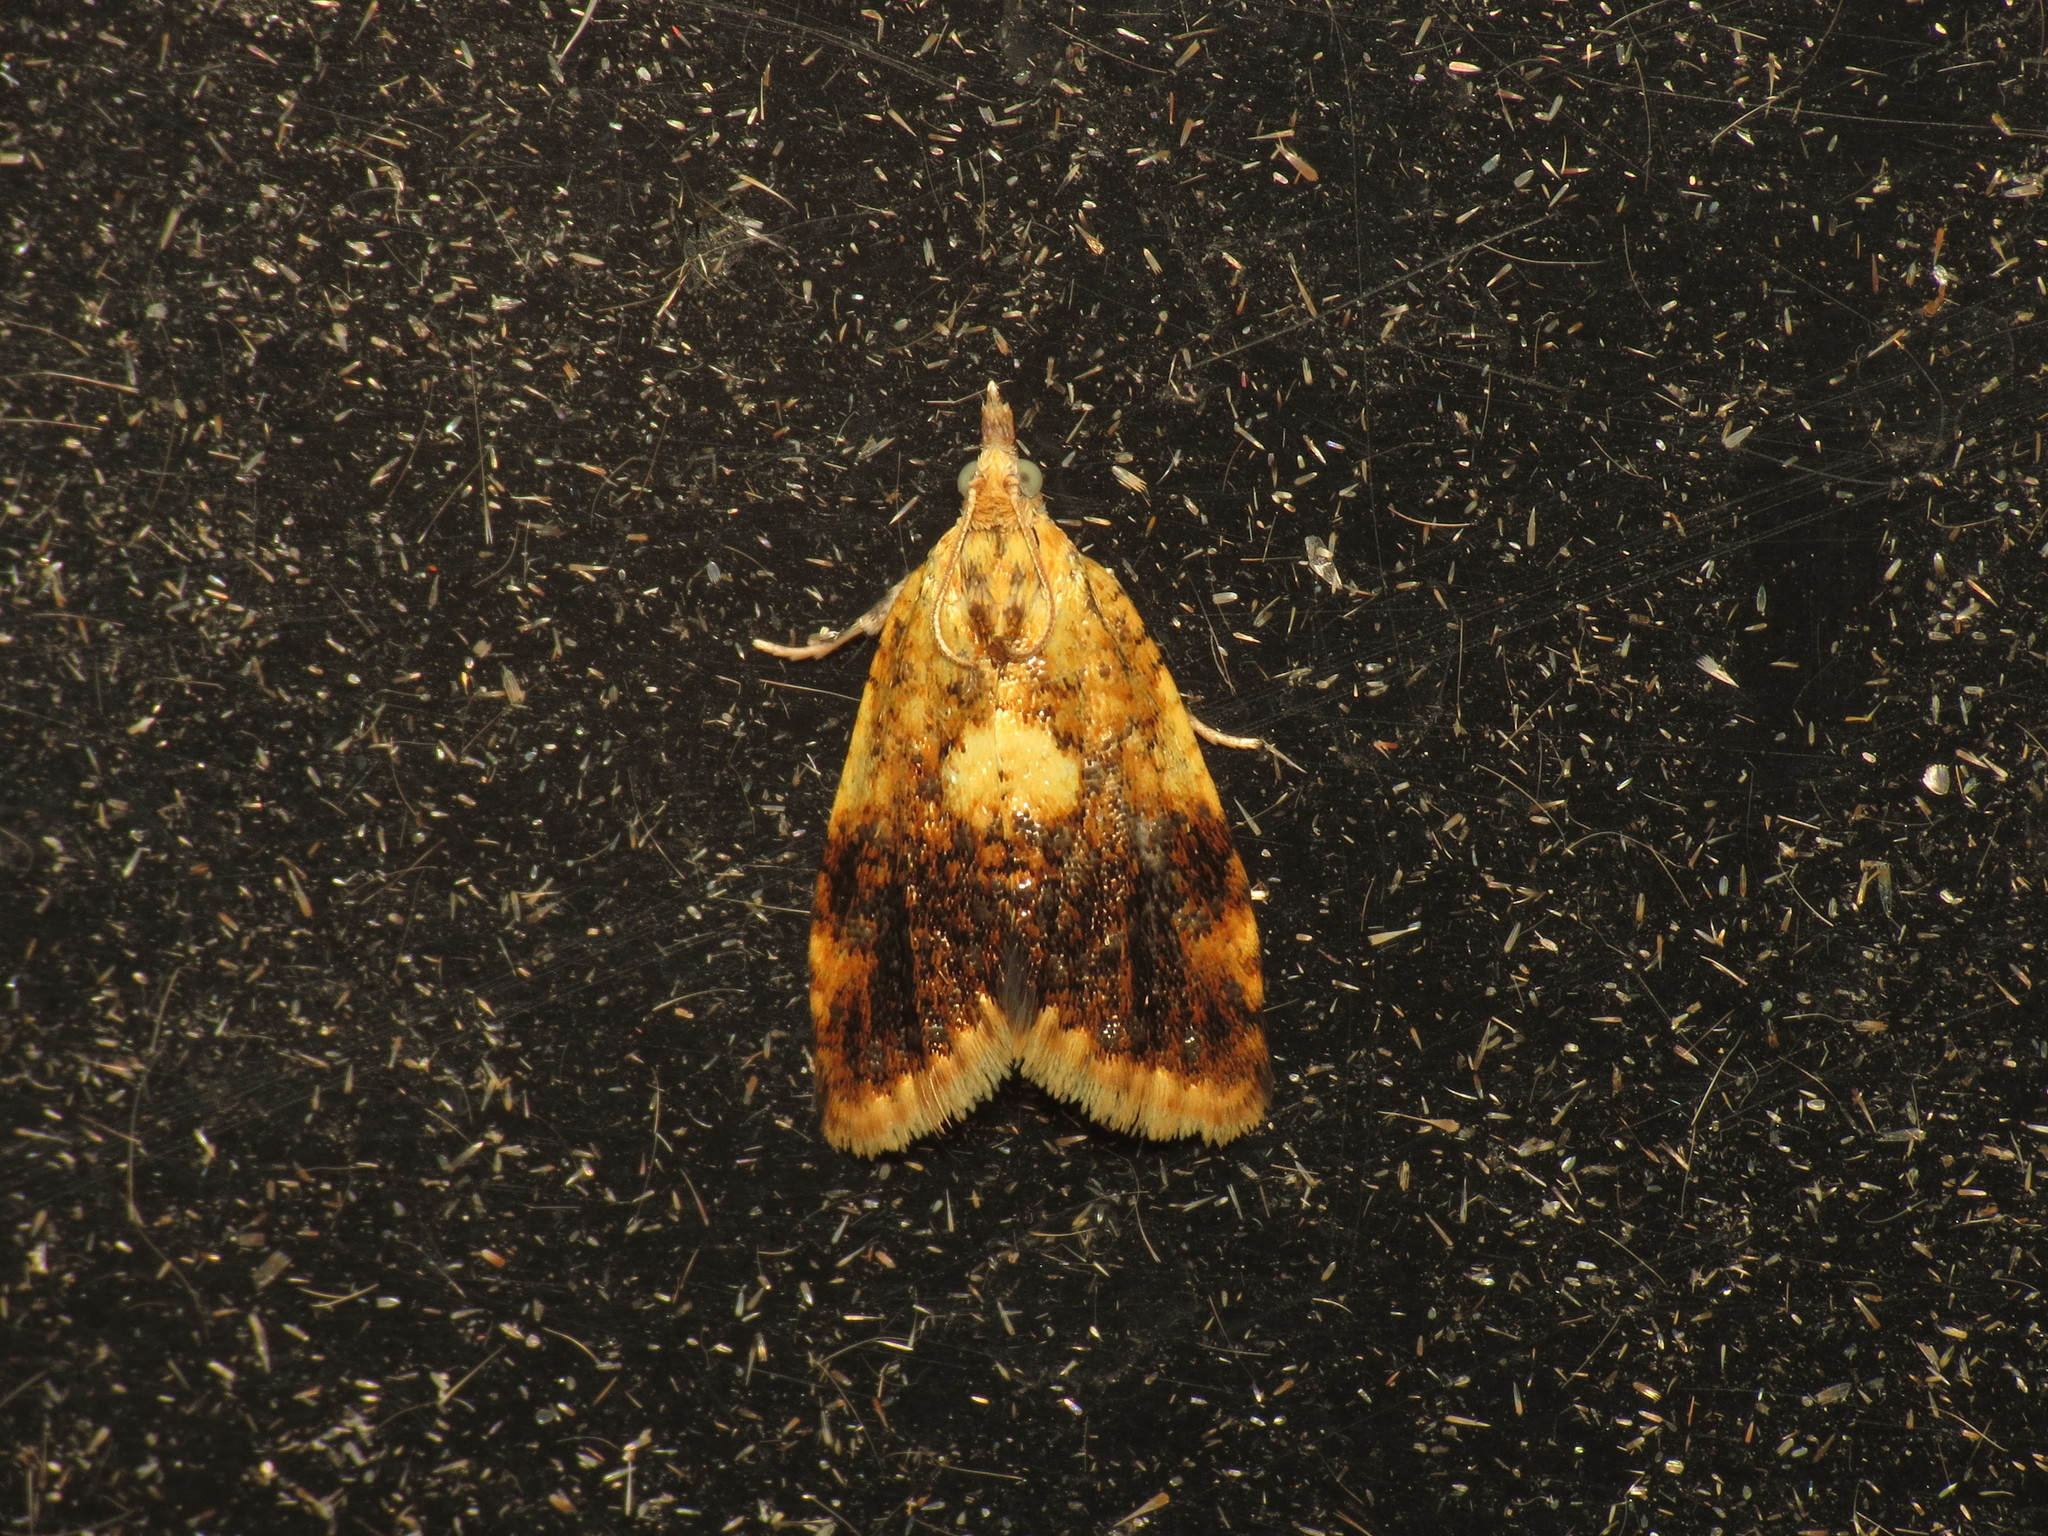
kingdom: Animalia
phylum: Arthropoda
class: Insecta
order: Lepidoptera
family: Tortricidae
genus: Pseudargyrotoza
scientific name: Pseudargyrotoza conwagana
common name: Yellow-spot twist
